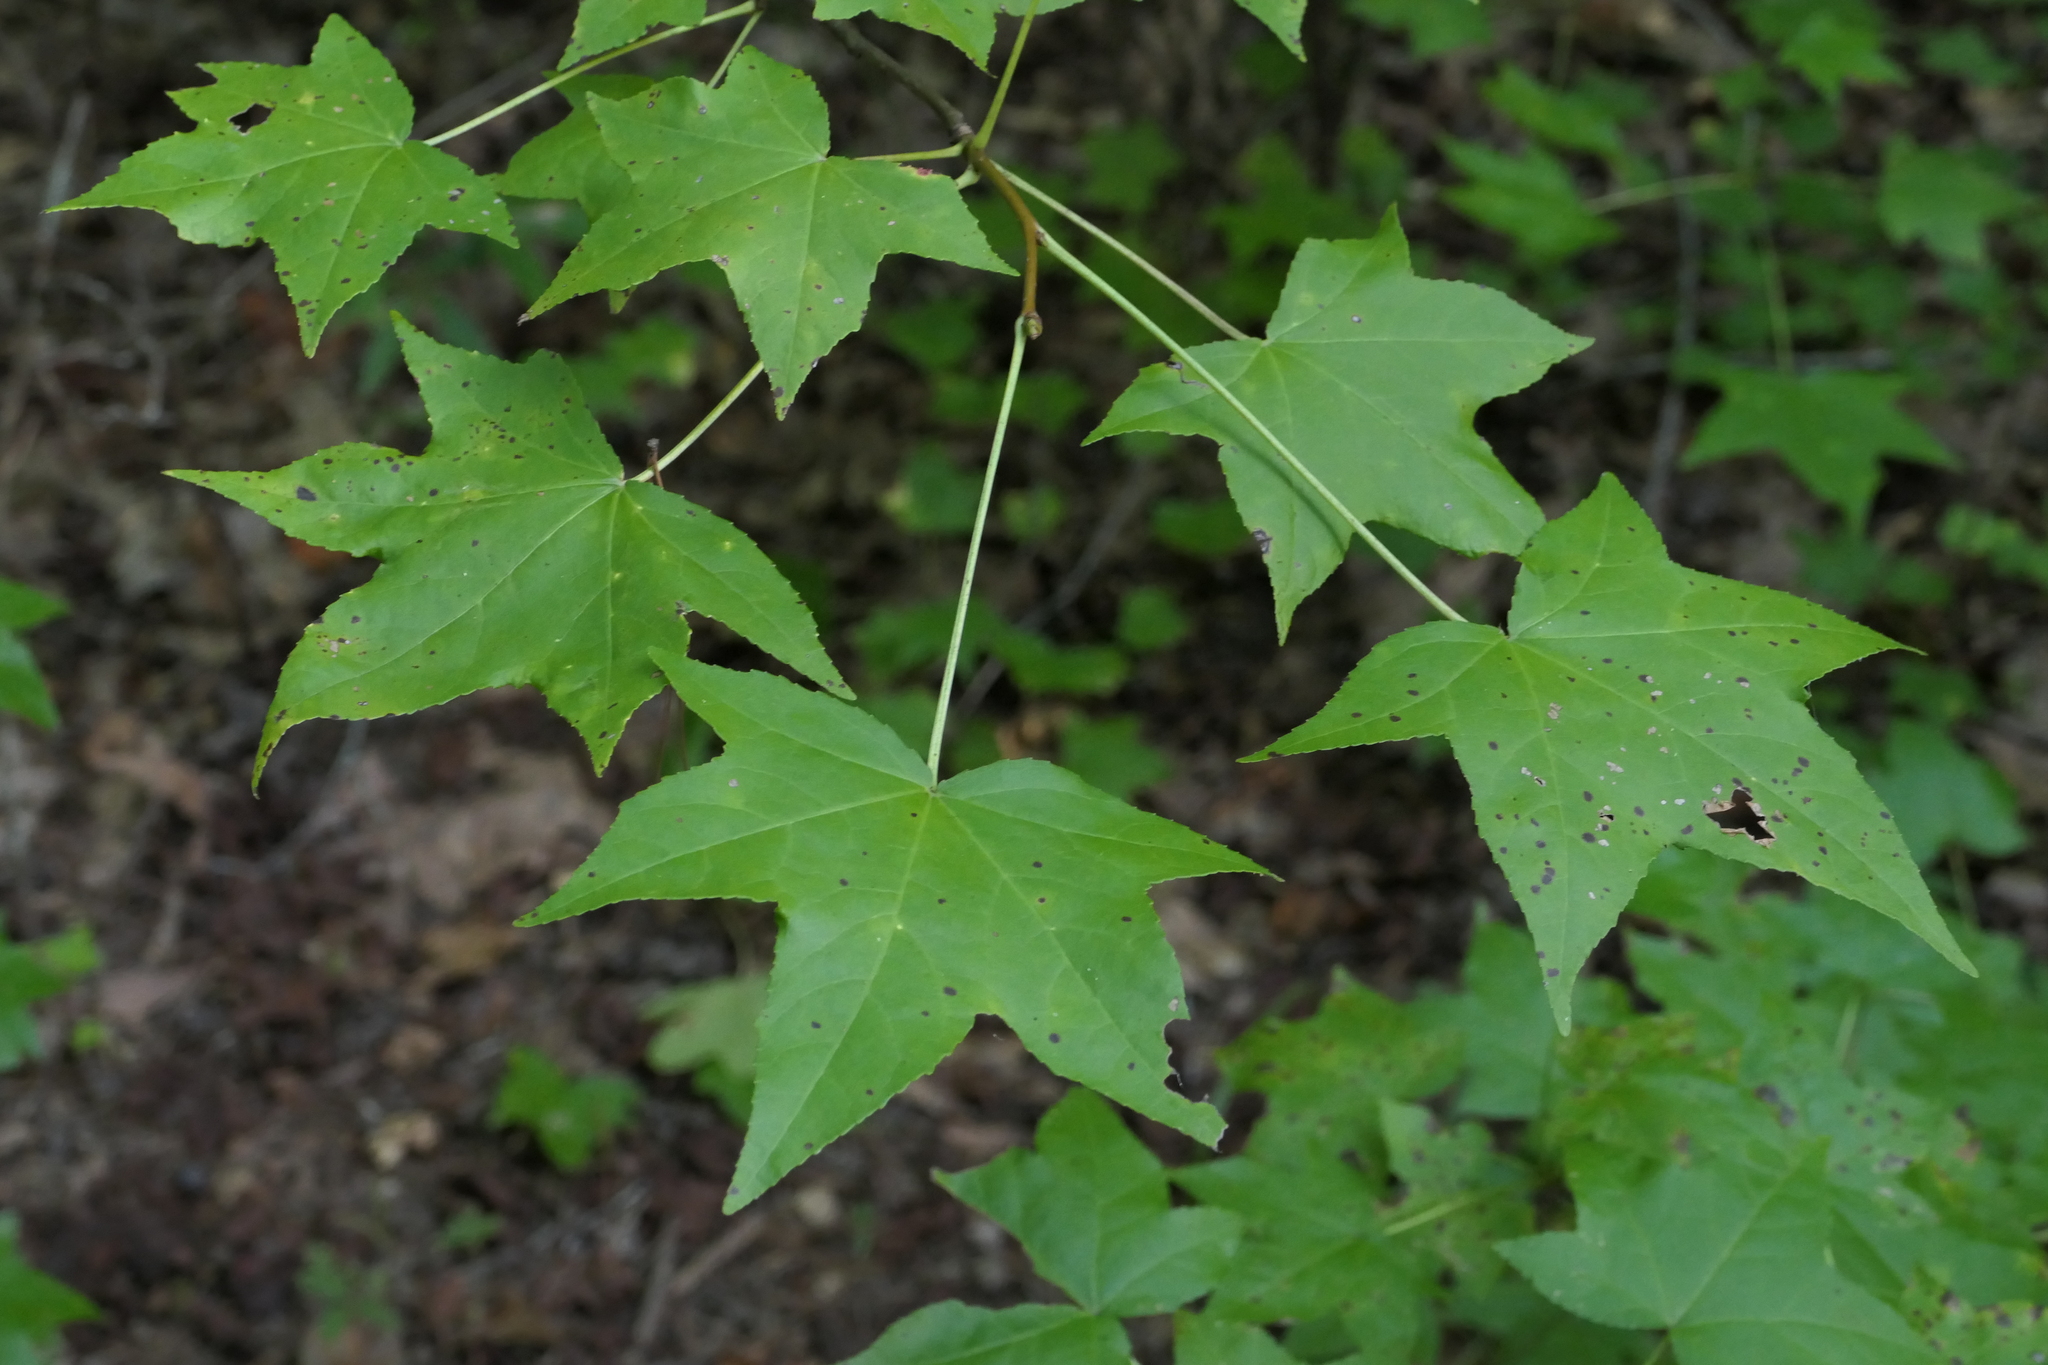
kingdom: Plantae
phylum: Tracheophyta
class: Magnoliopsida
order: Saxifragales
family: Altingiaceae
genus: Liquidambar
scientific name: Liquidambar styraciflua
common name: Sweet gum
